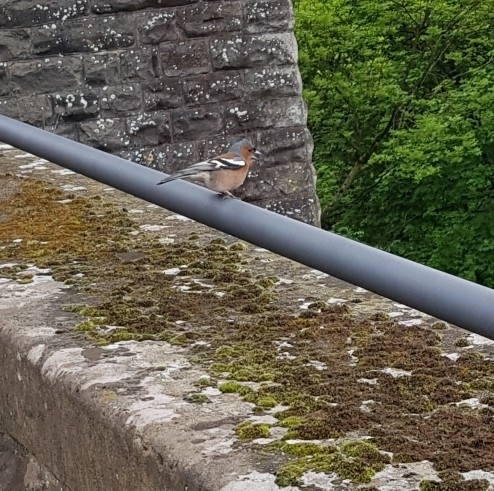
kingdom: Animalia
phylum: Chordata
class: Aves
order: Passeriformes
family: Fringillidae
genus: Fringilla
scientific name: Fringilla coelebs
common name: Common chaffinch
